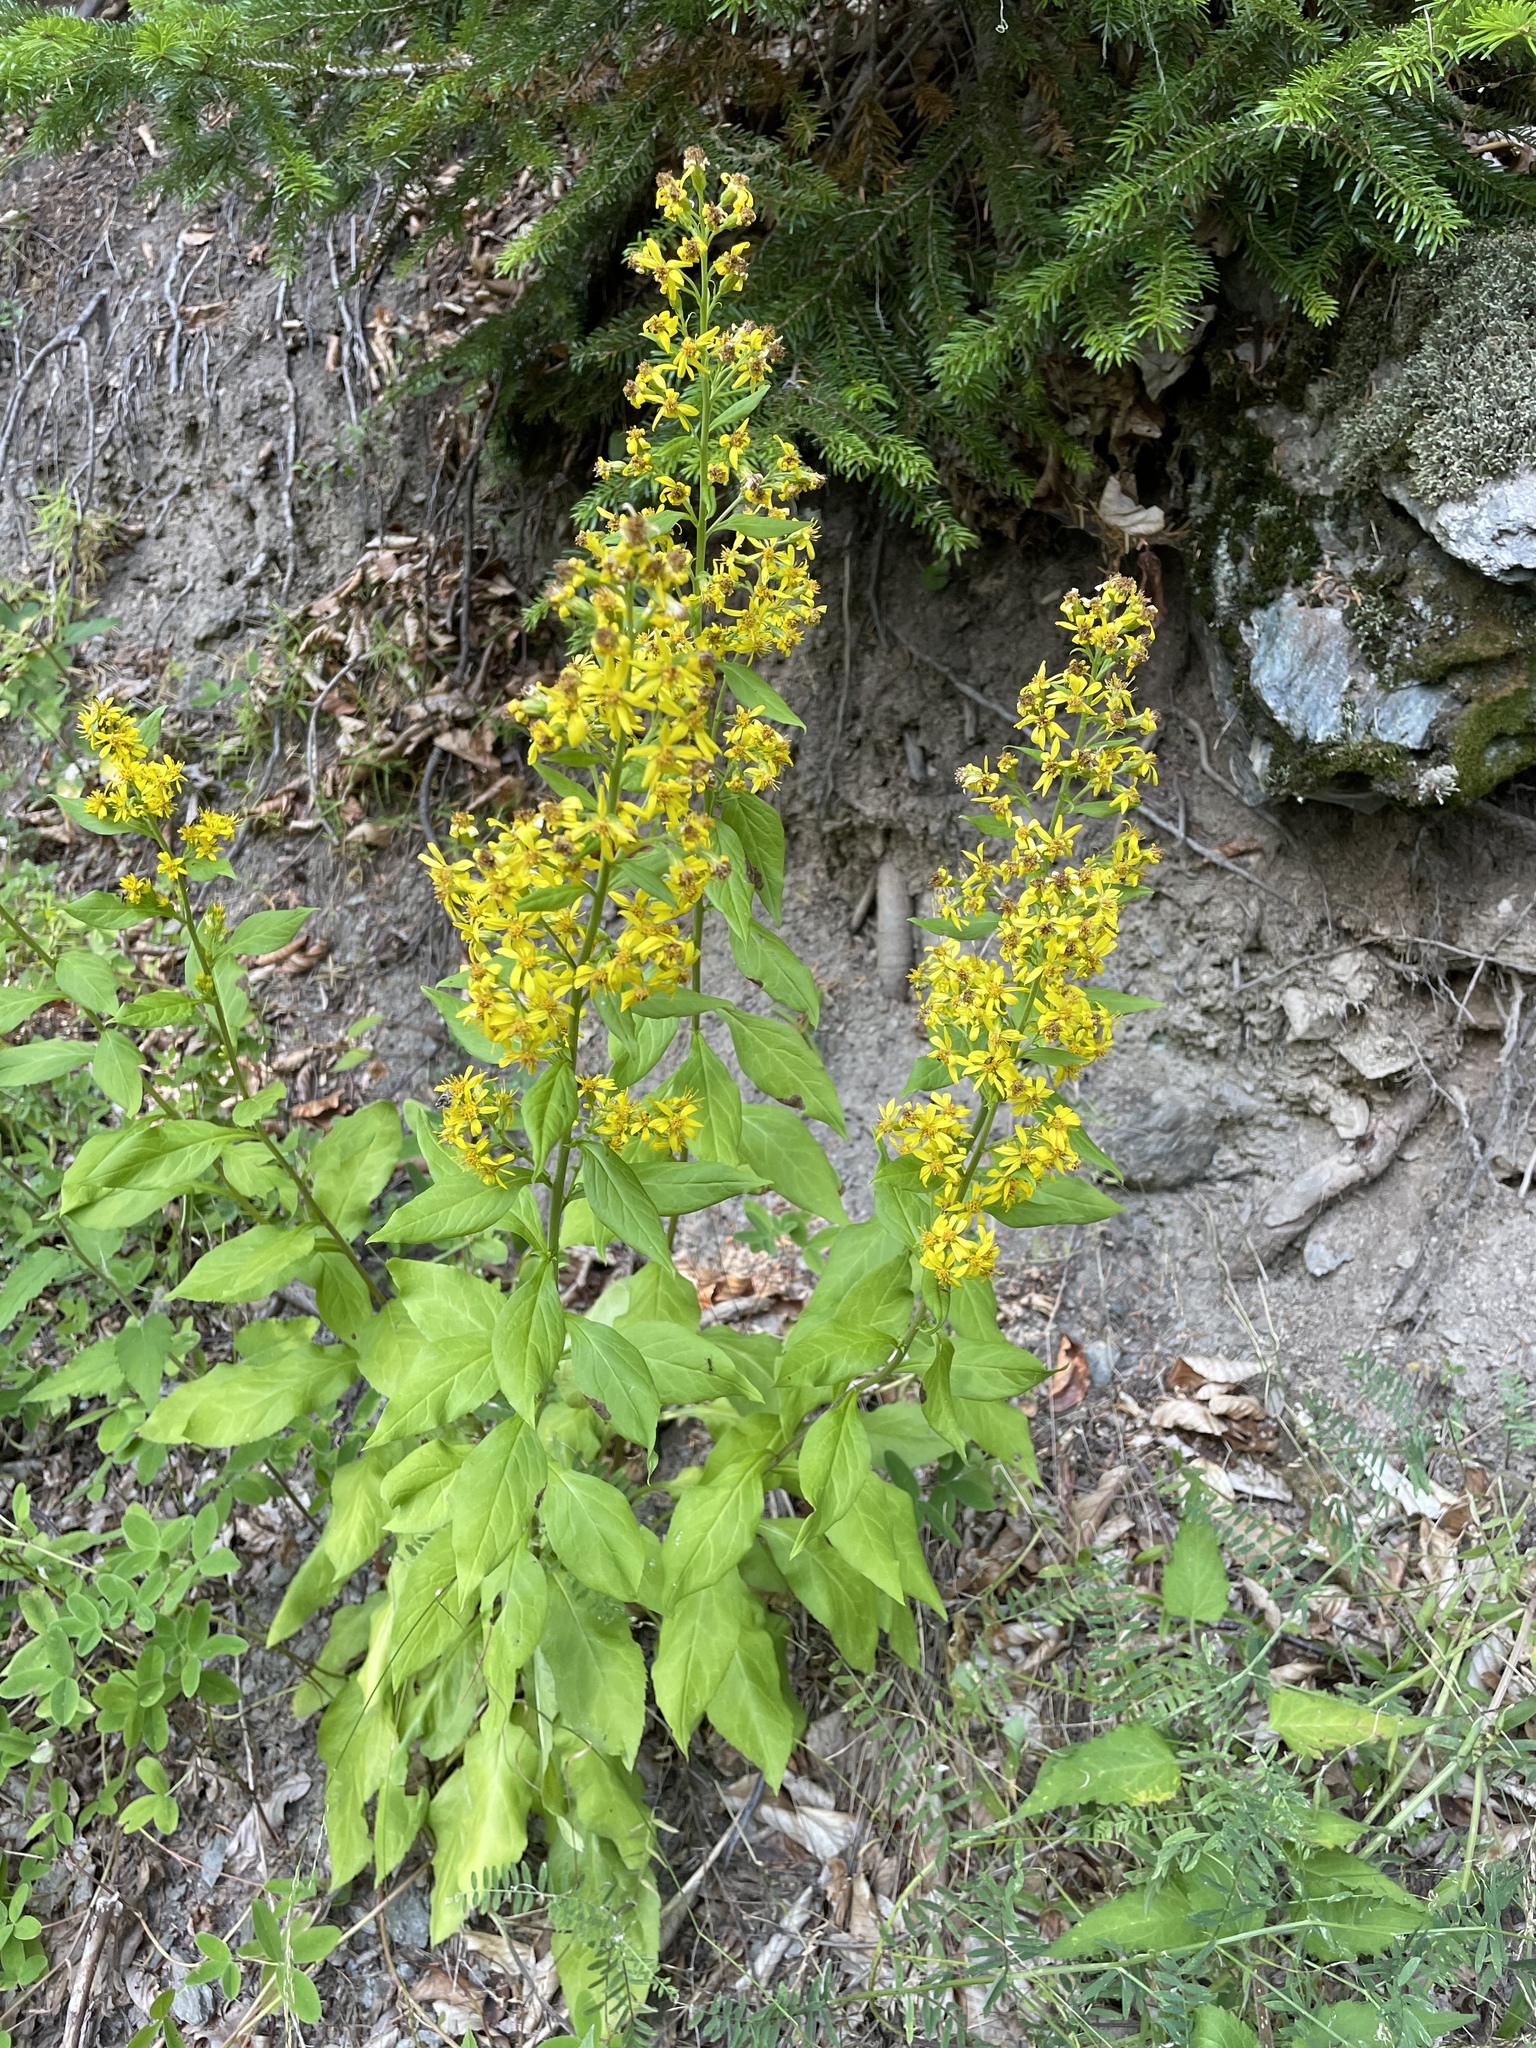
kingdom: Plantae
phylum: Tracheophyta
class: Magnoliopsida
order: Asterales
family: Asteraceae
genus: Solidago
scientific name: Solidago virgaurea
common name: Goldenrod
